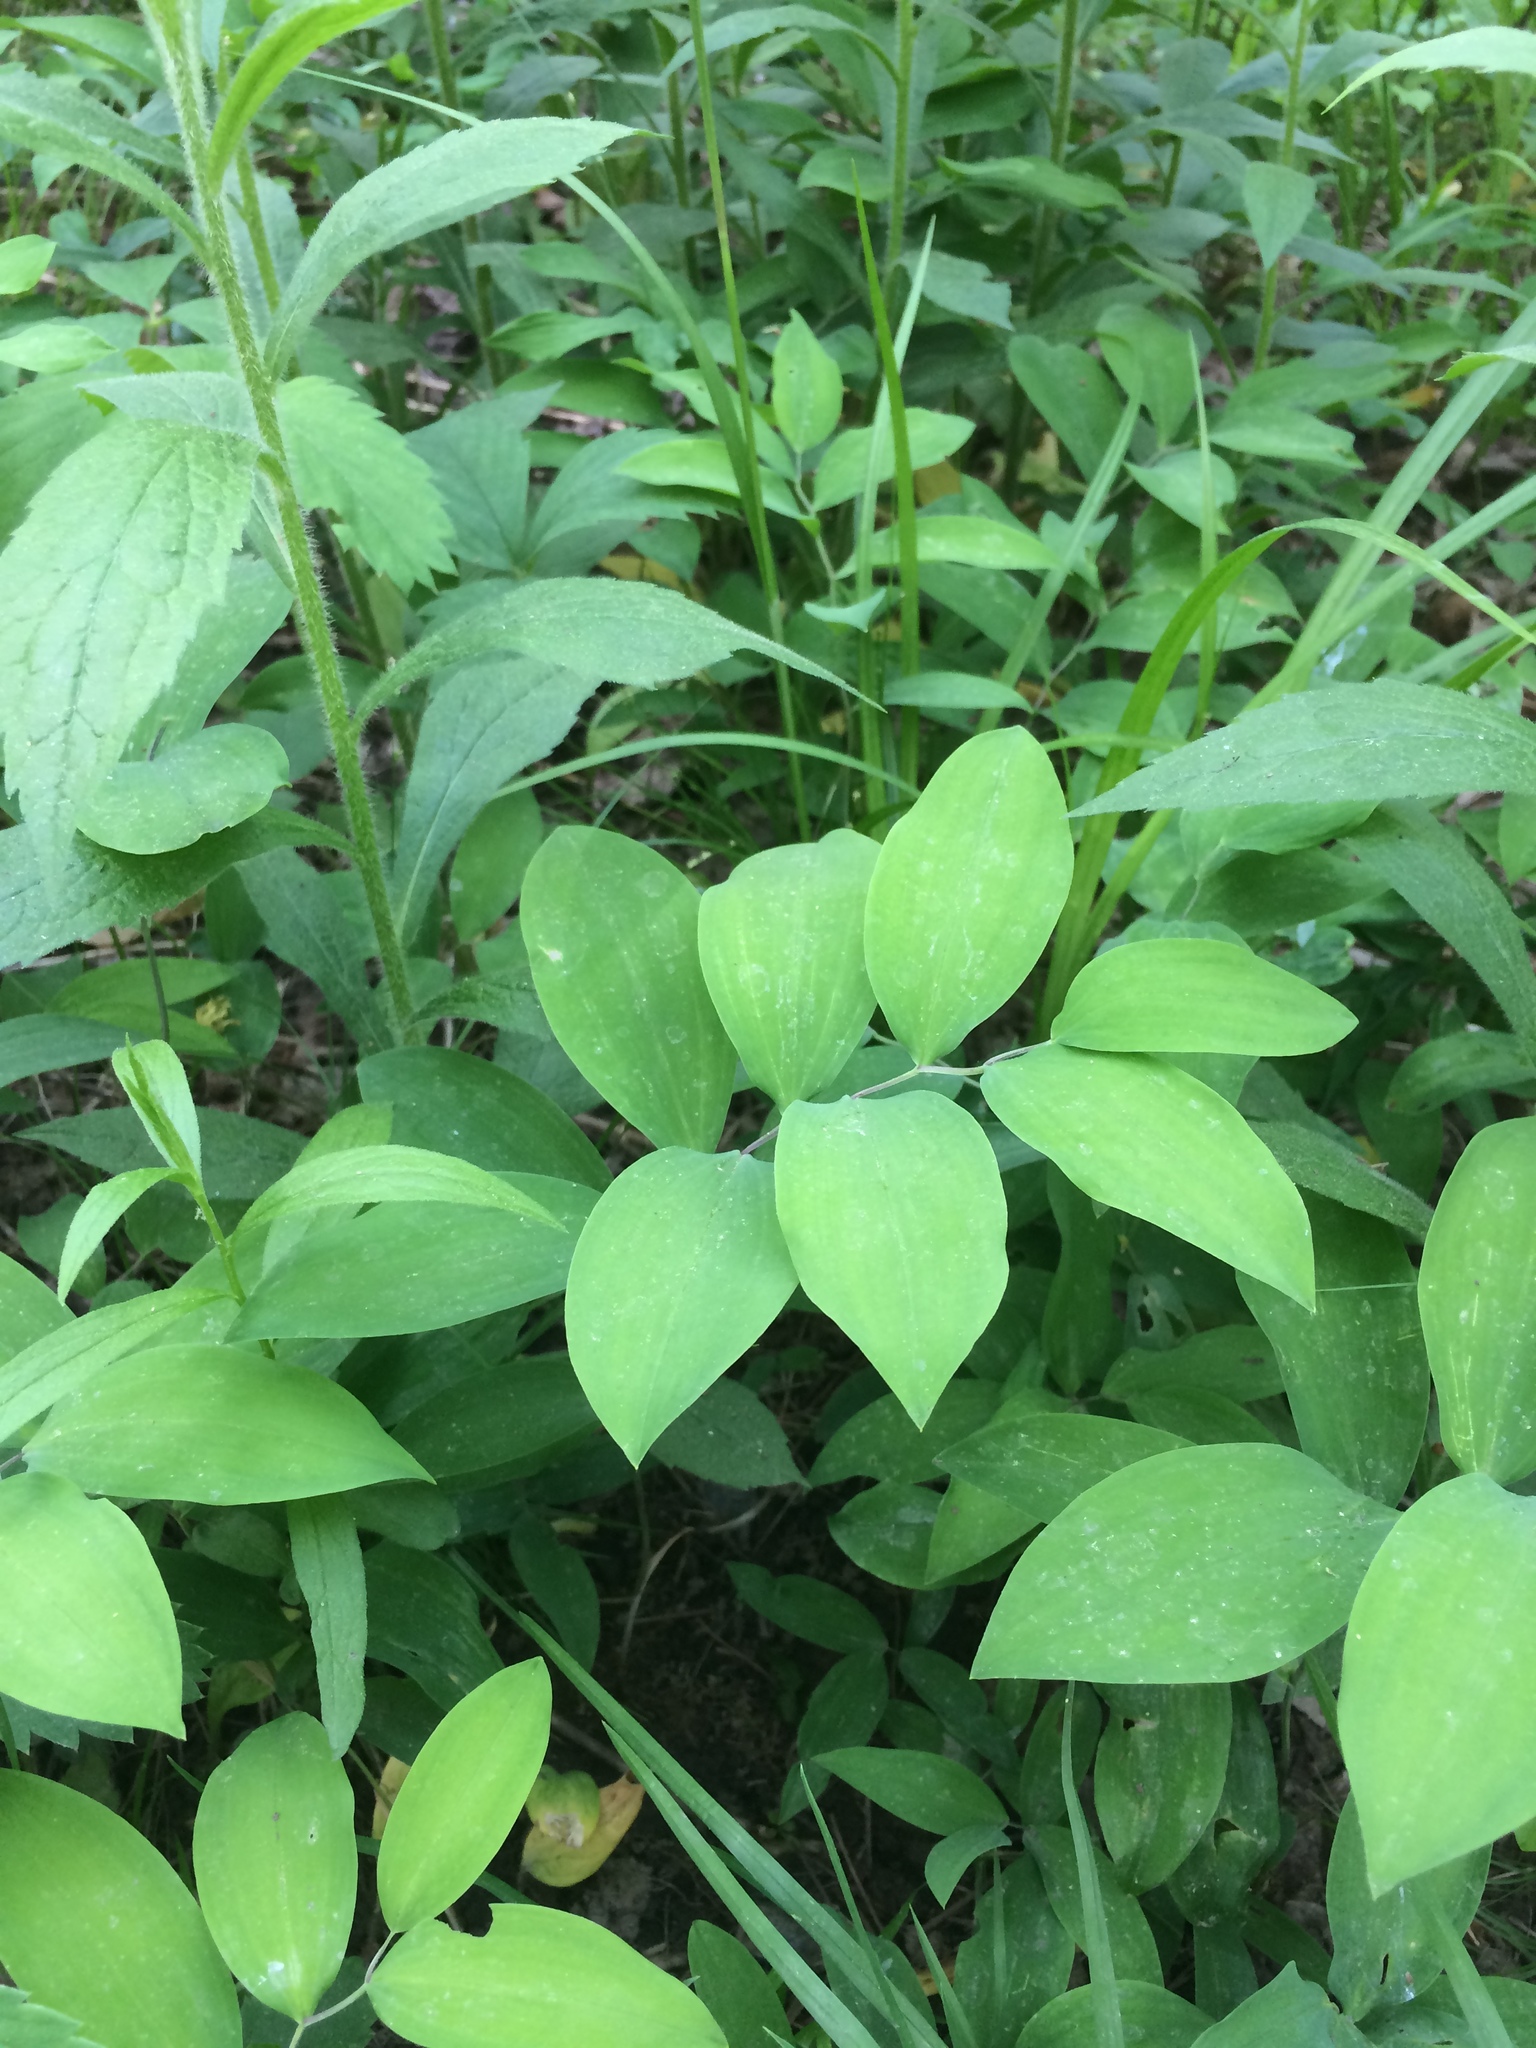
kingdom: Plantae
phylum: Tracheophyta
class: Liliopsida
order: Liliales
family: Colchicaceae
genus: Uvularia
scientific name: Uvularia sessilifolia
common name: Straw-lily
